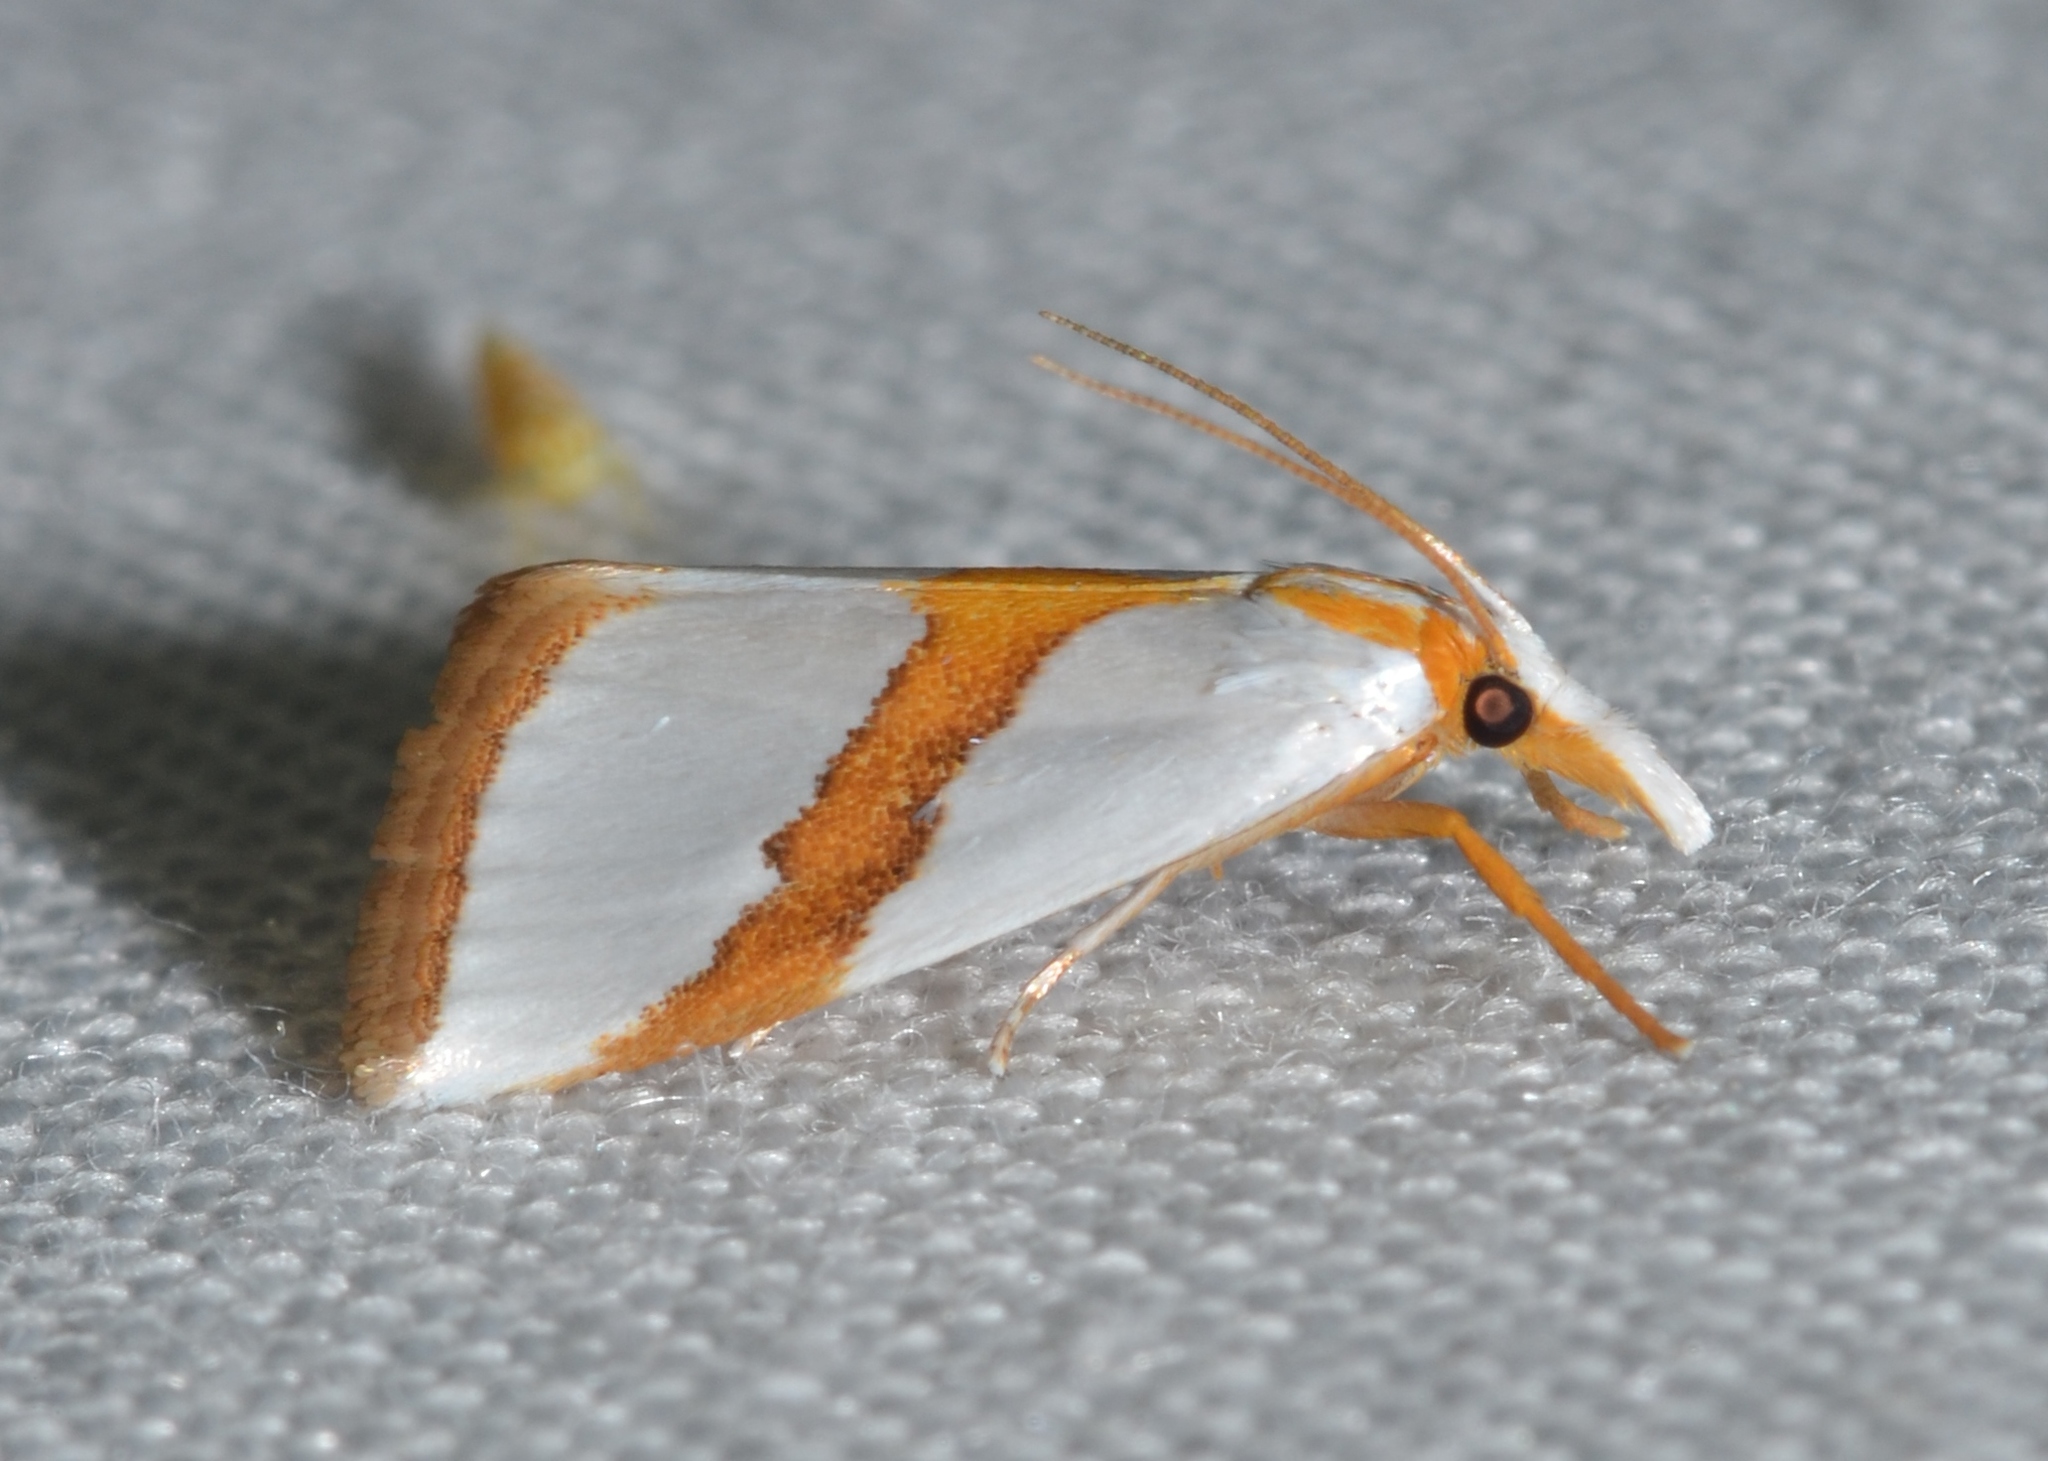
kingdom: Animalia
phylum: Arthropoda
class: Insecta
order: Lepidoptera
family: Crambidae
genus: Vaxi
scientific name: Vaxi critica
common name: Straight-lined vaxi moth
